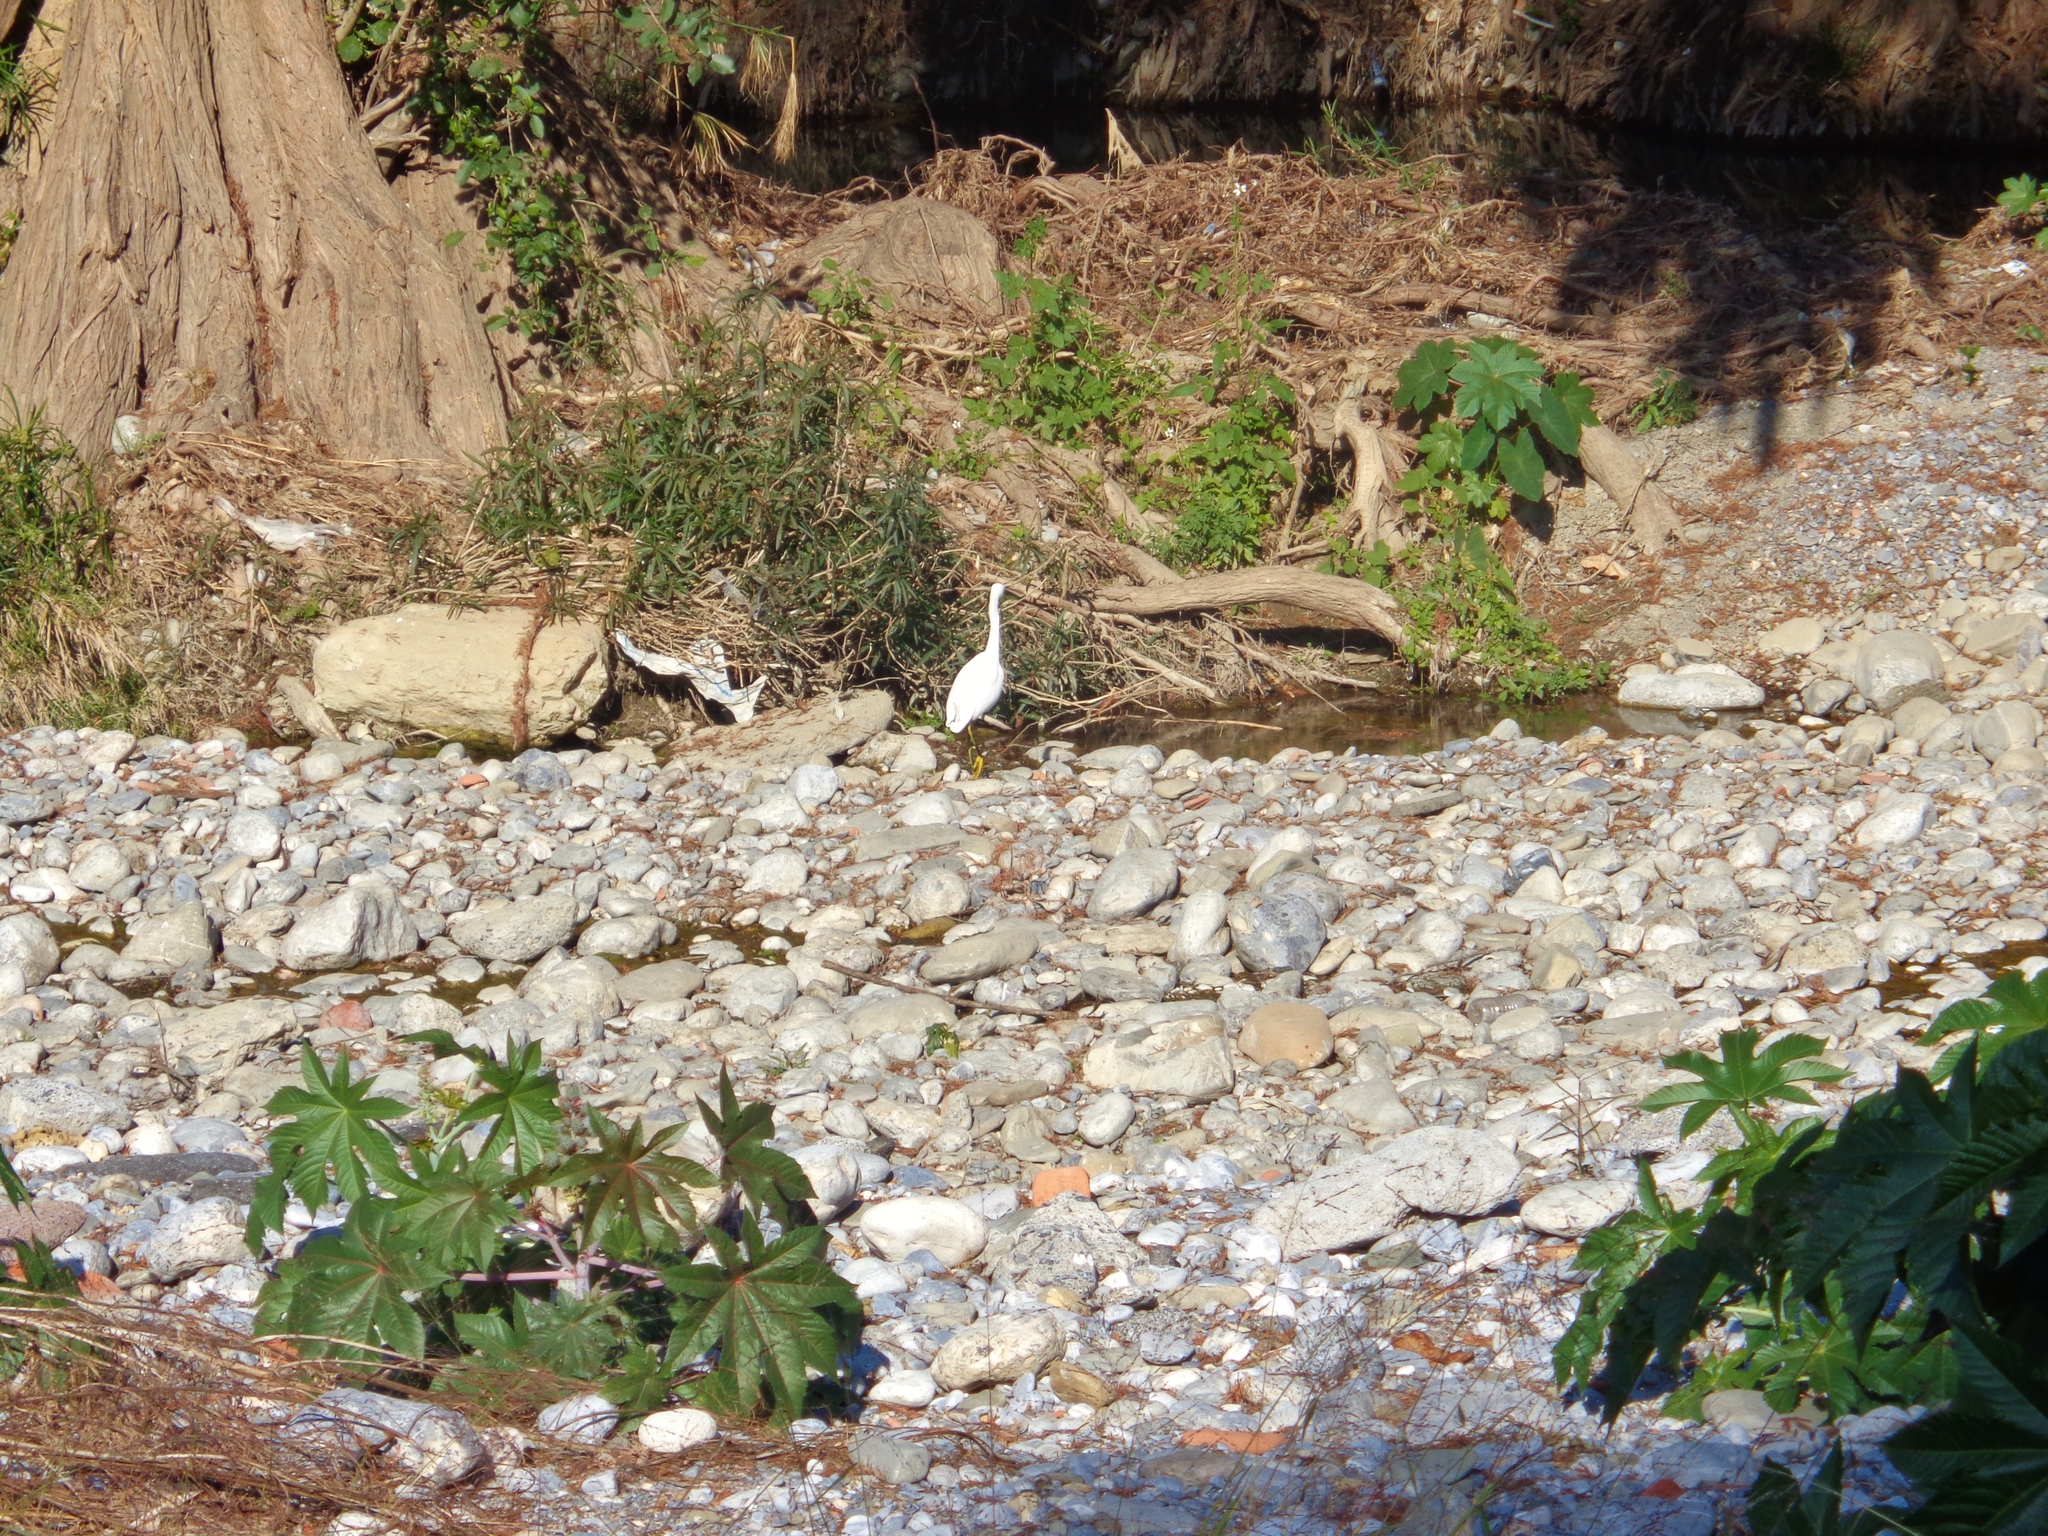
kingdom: Animalia
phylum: Chordata
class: Aves
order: Pelecaniformes
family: Ardeidae
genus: Egretta
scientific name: Egretta thula
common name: Snowy egret
